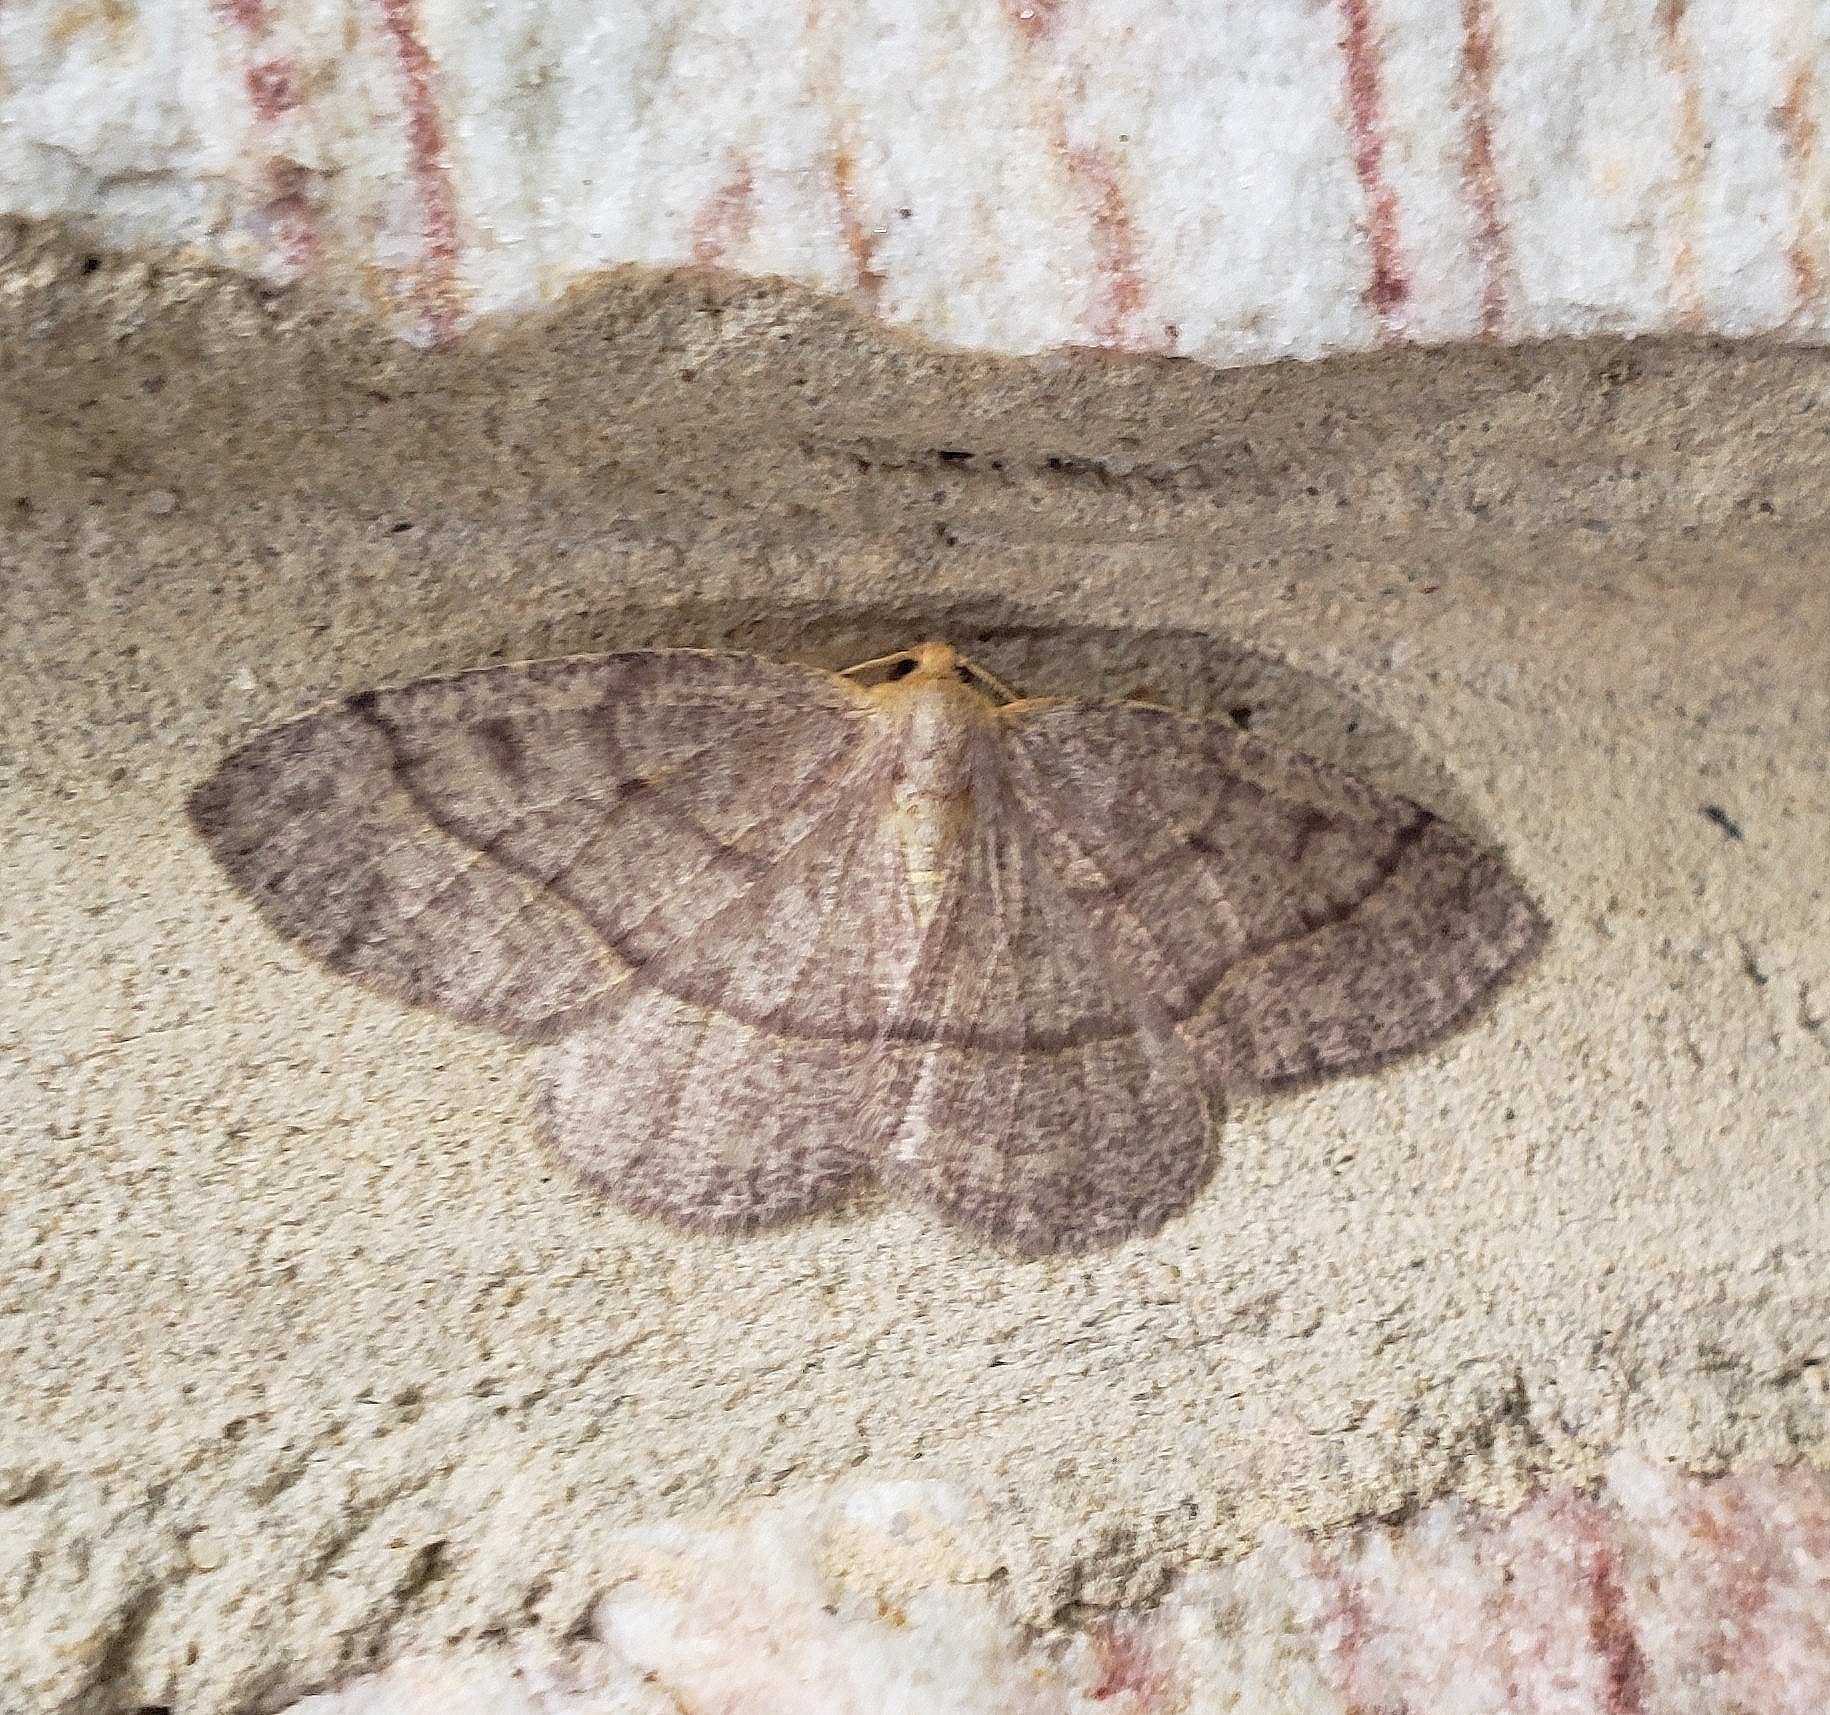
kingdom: Animalia
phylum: Arthropoda
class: Insecta
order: Lepidoptera
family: Geometridae
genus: Lambdina
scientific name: Lambdina fervidaria
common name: Curve-lined looper moth
